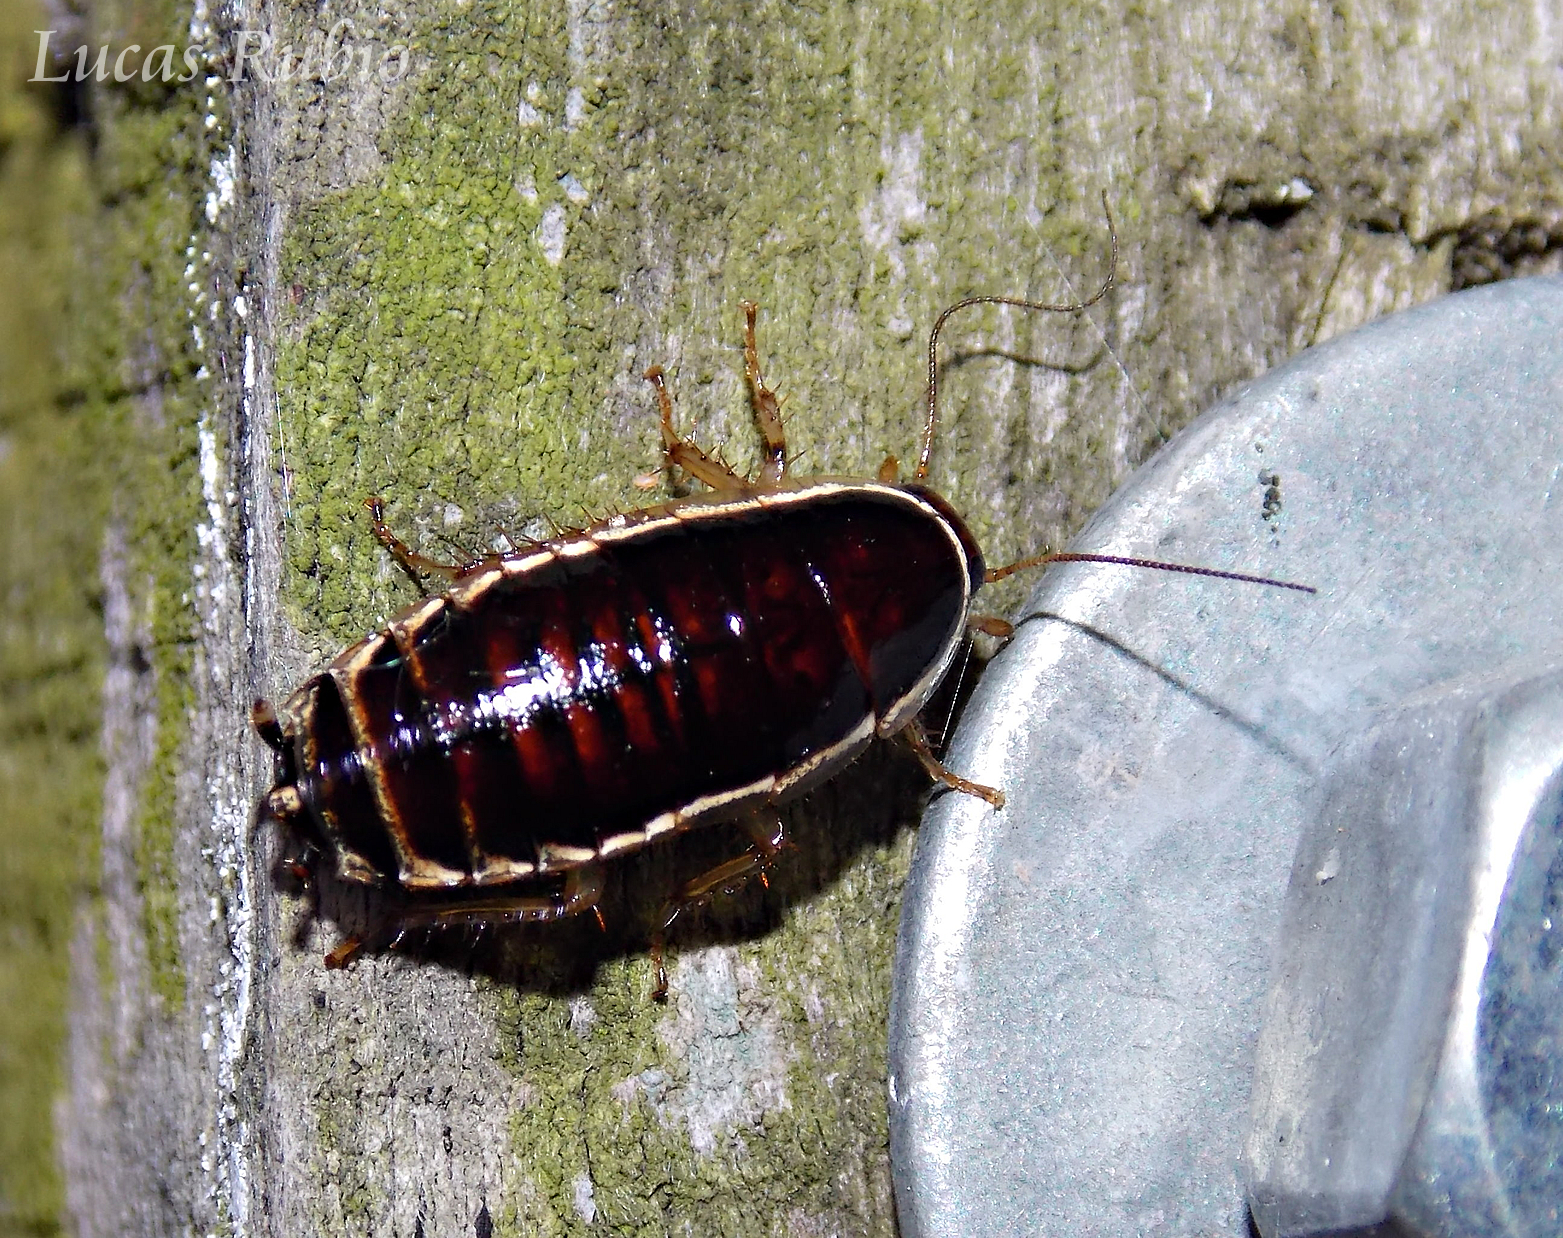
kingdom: Animalia
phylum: Arthropoda
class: Insecta
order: Blattodea
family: Ectobiidae
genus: Agmoblatta
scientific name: Agmoblatta thaxteri
